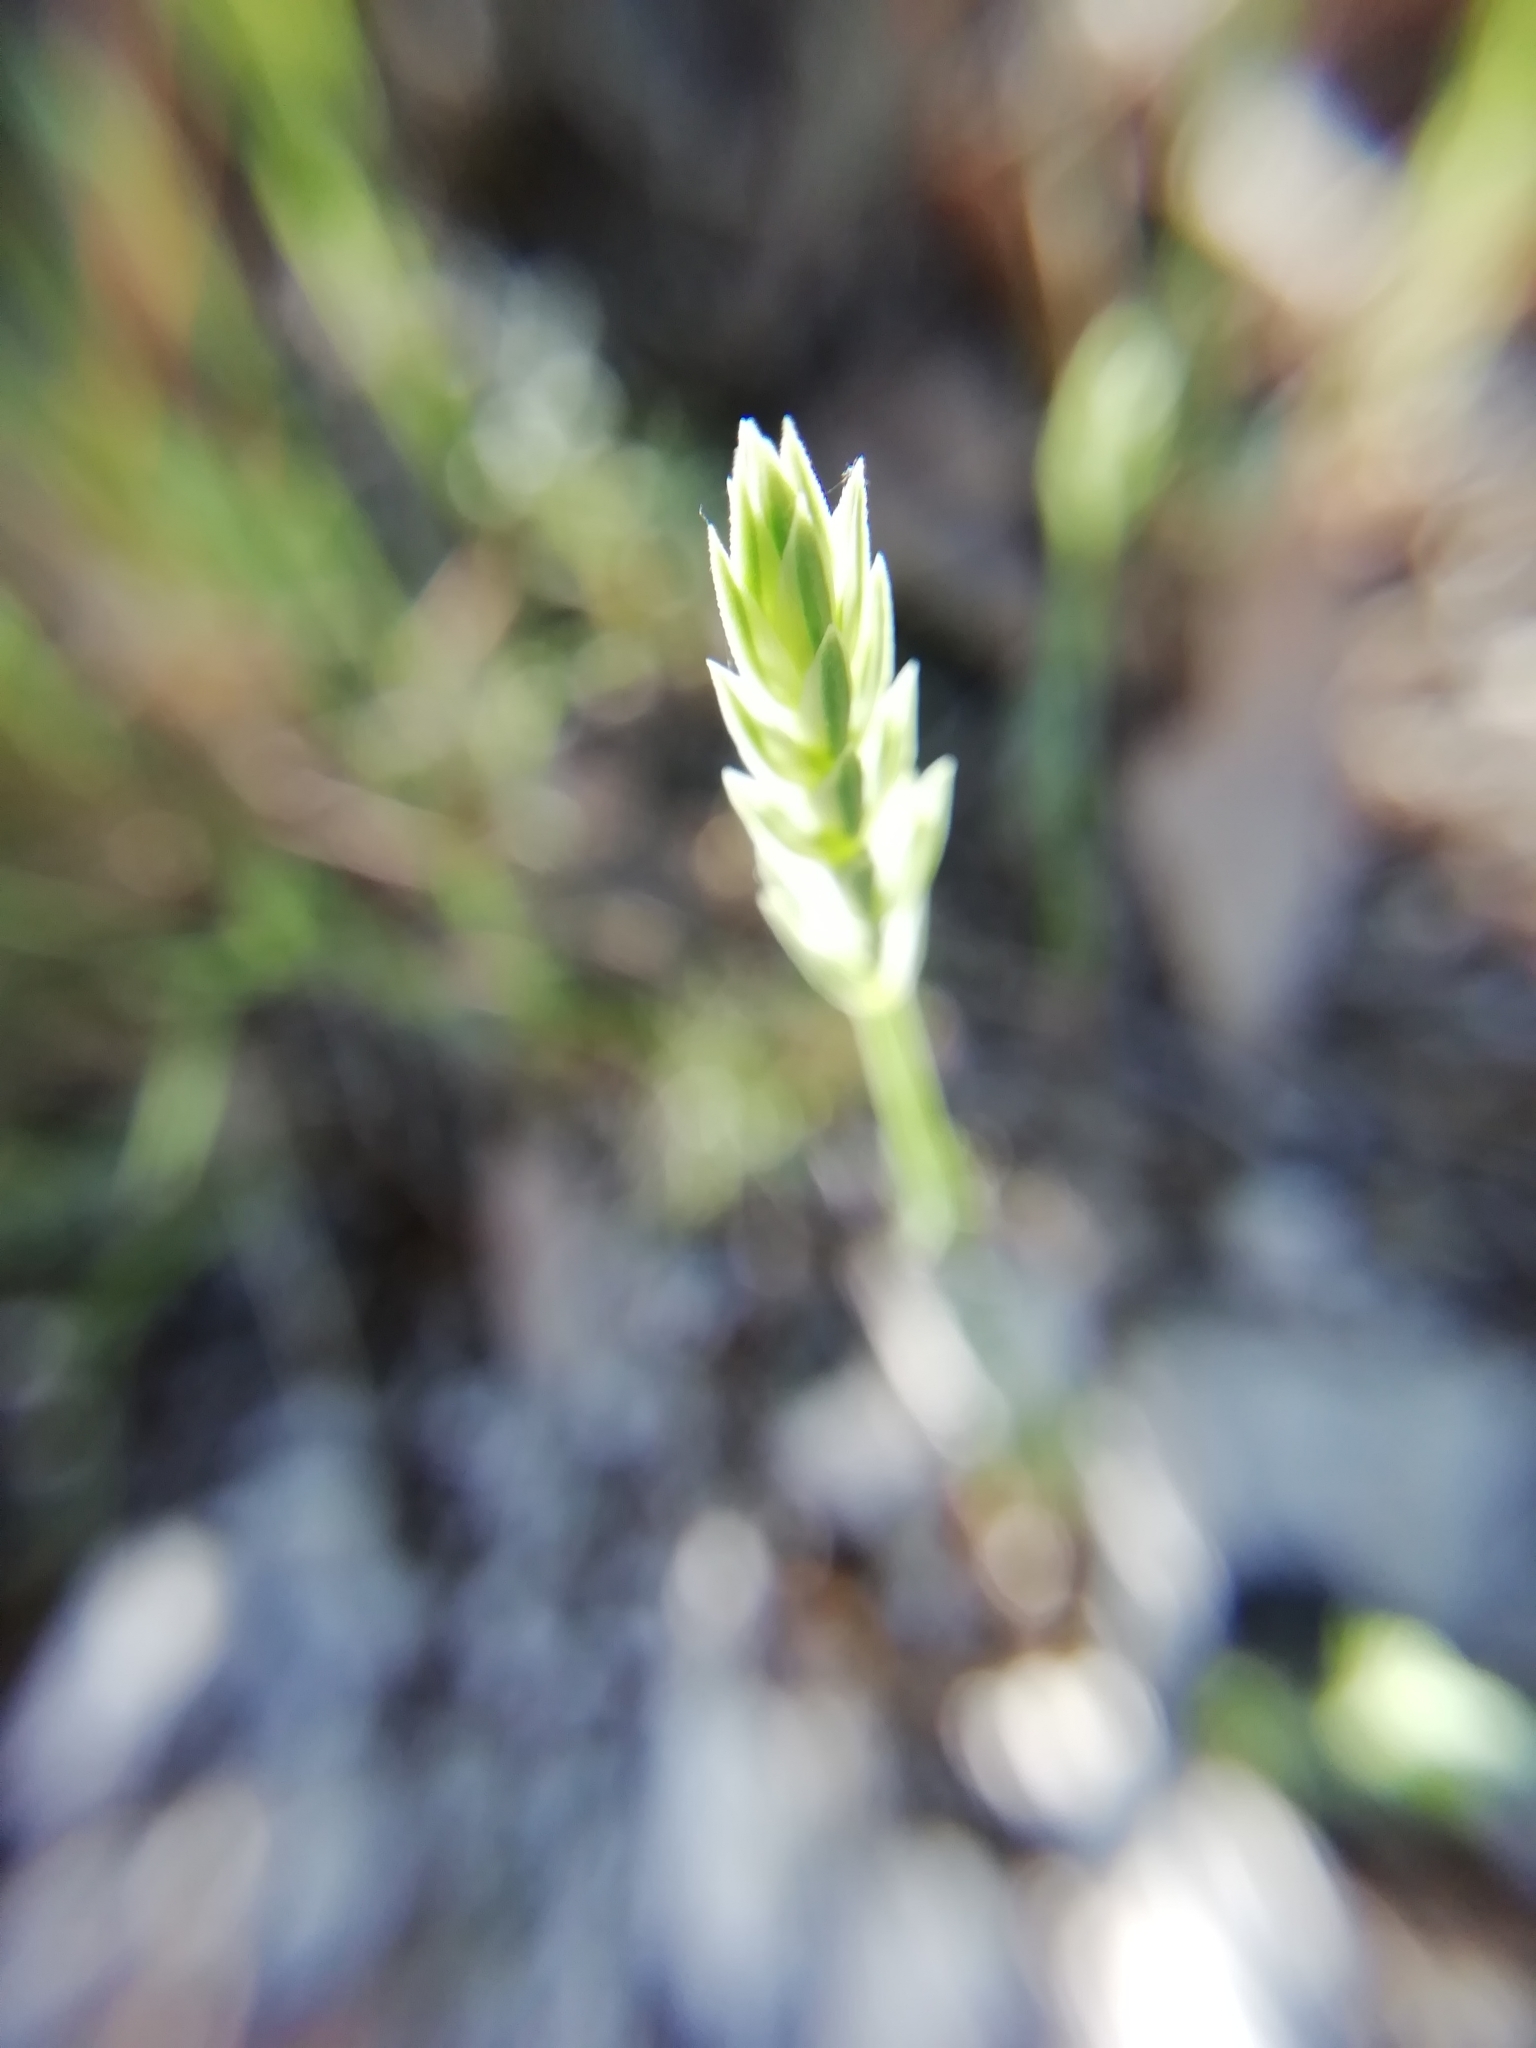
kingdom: Plantae
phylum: Tracheophyta
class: Magnoliopsida
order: Gentianales
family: Rubiaceae
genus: Crucianella
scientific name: Crucianella angustifolia
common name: Narrowleaf crucianella
